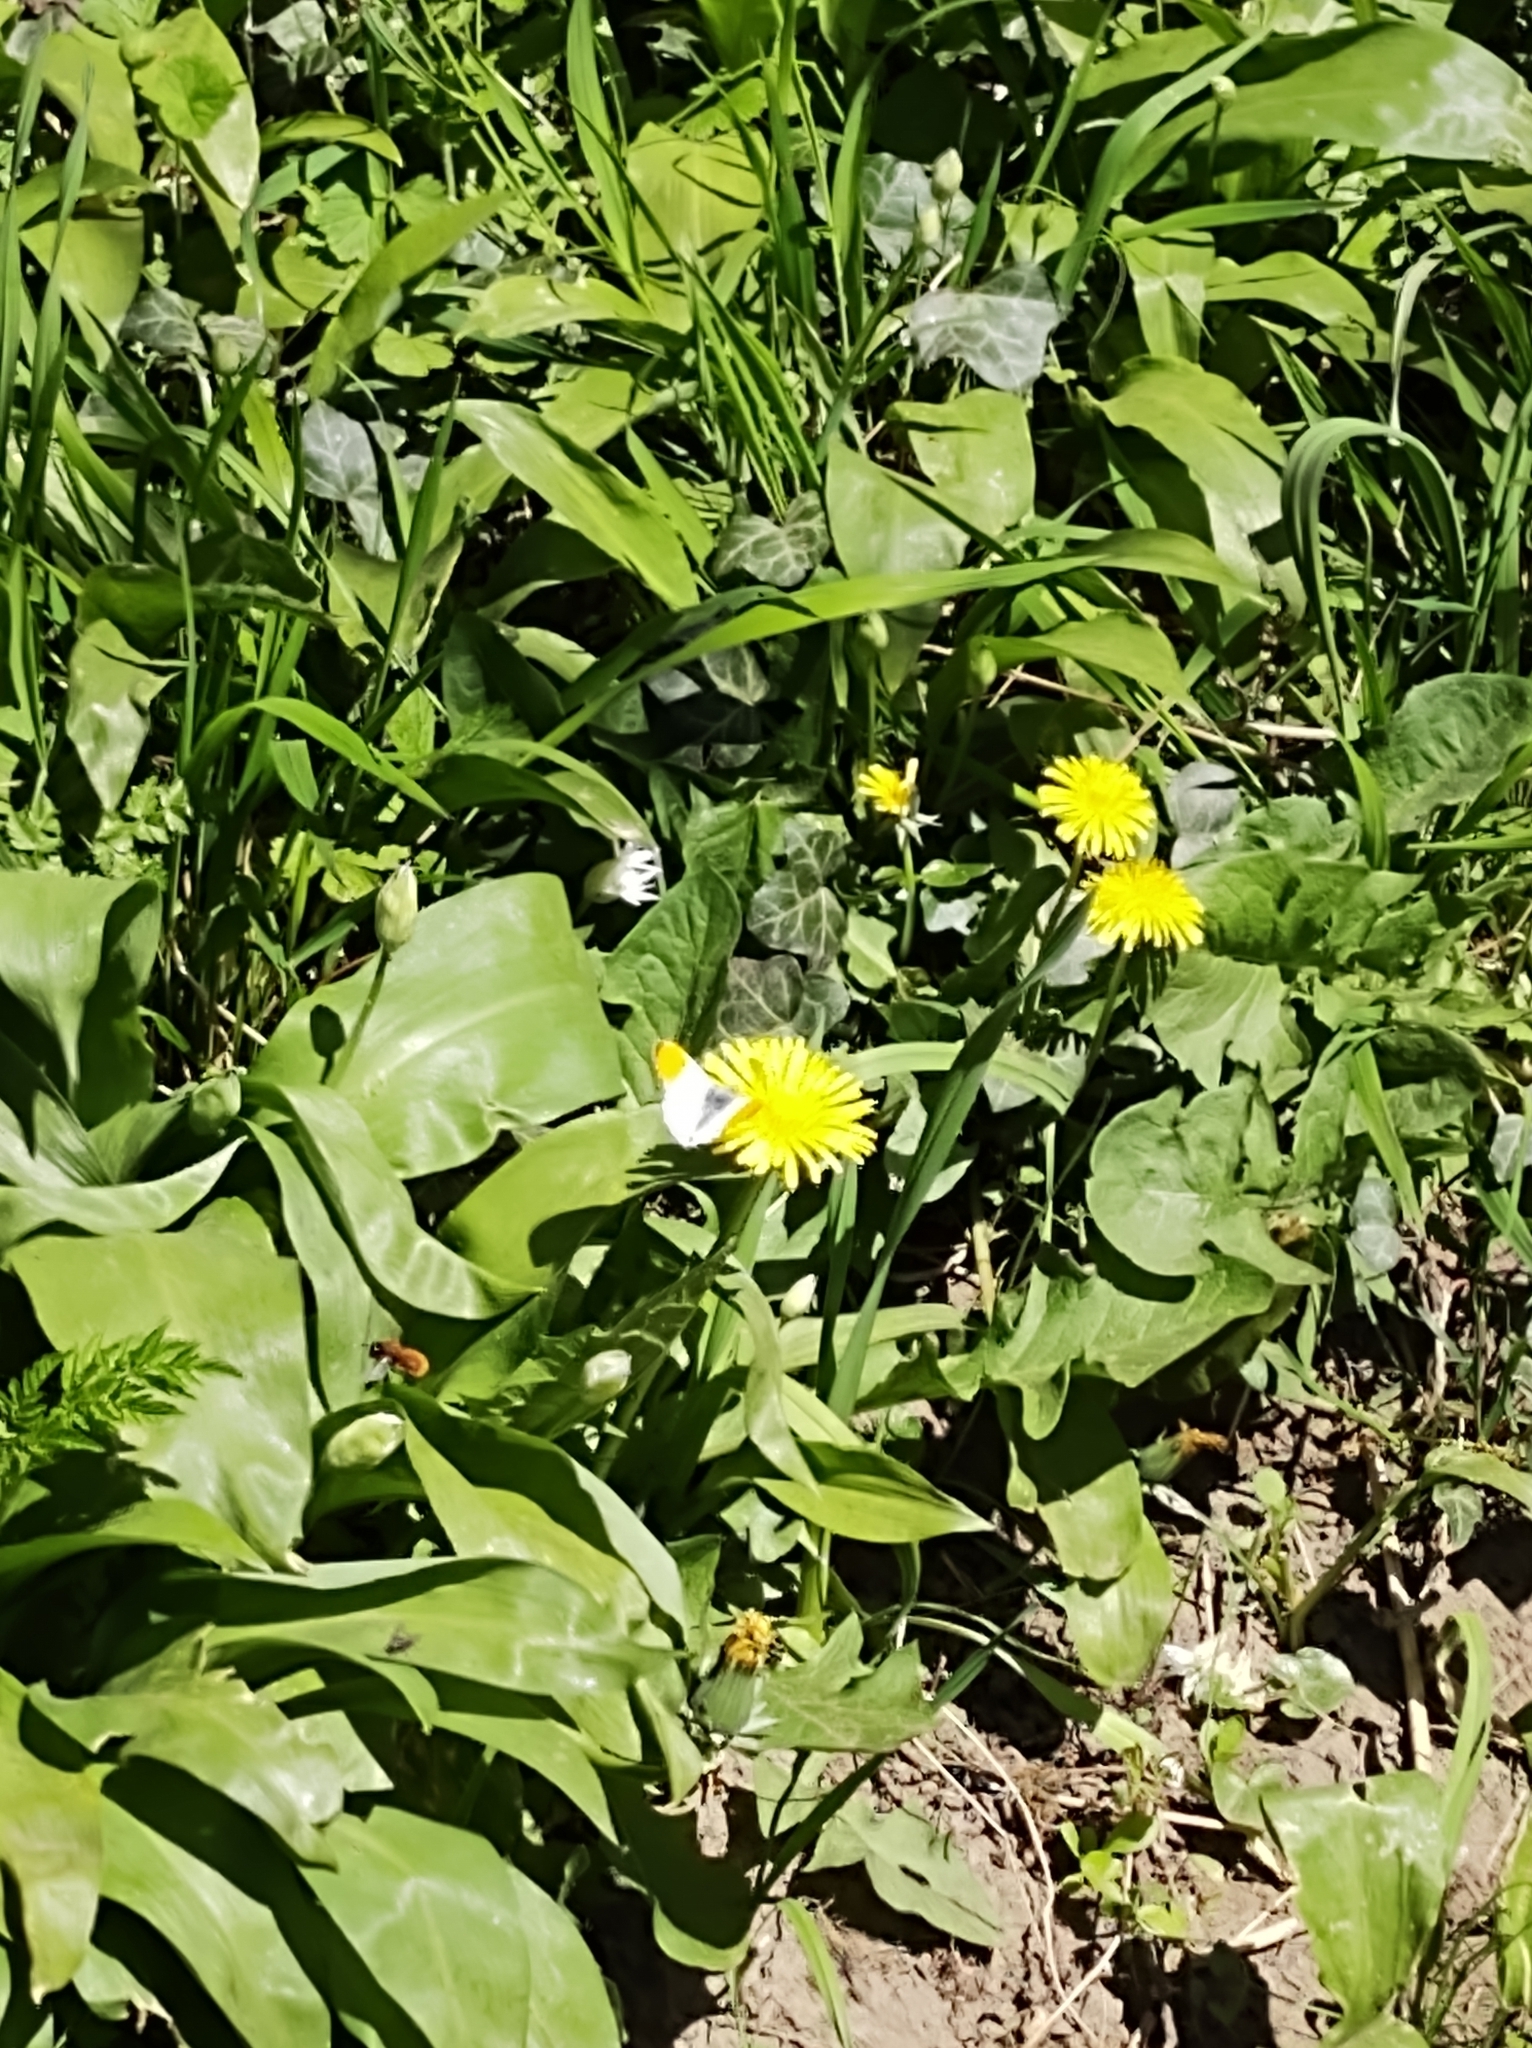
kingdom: Animalia
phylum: Arthropoda
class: Insecta
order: Lepidoptera
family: Pieridae
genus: Anthocharis
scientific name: Anthocharis cardamines
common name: Orange-tip
